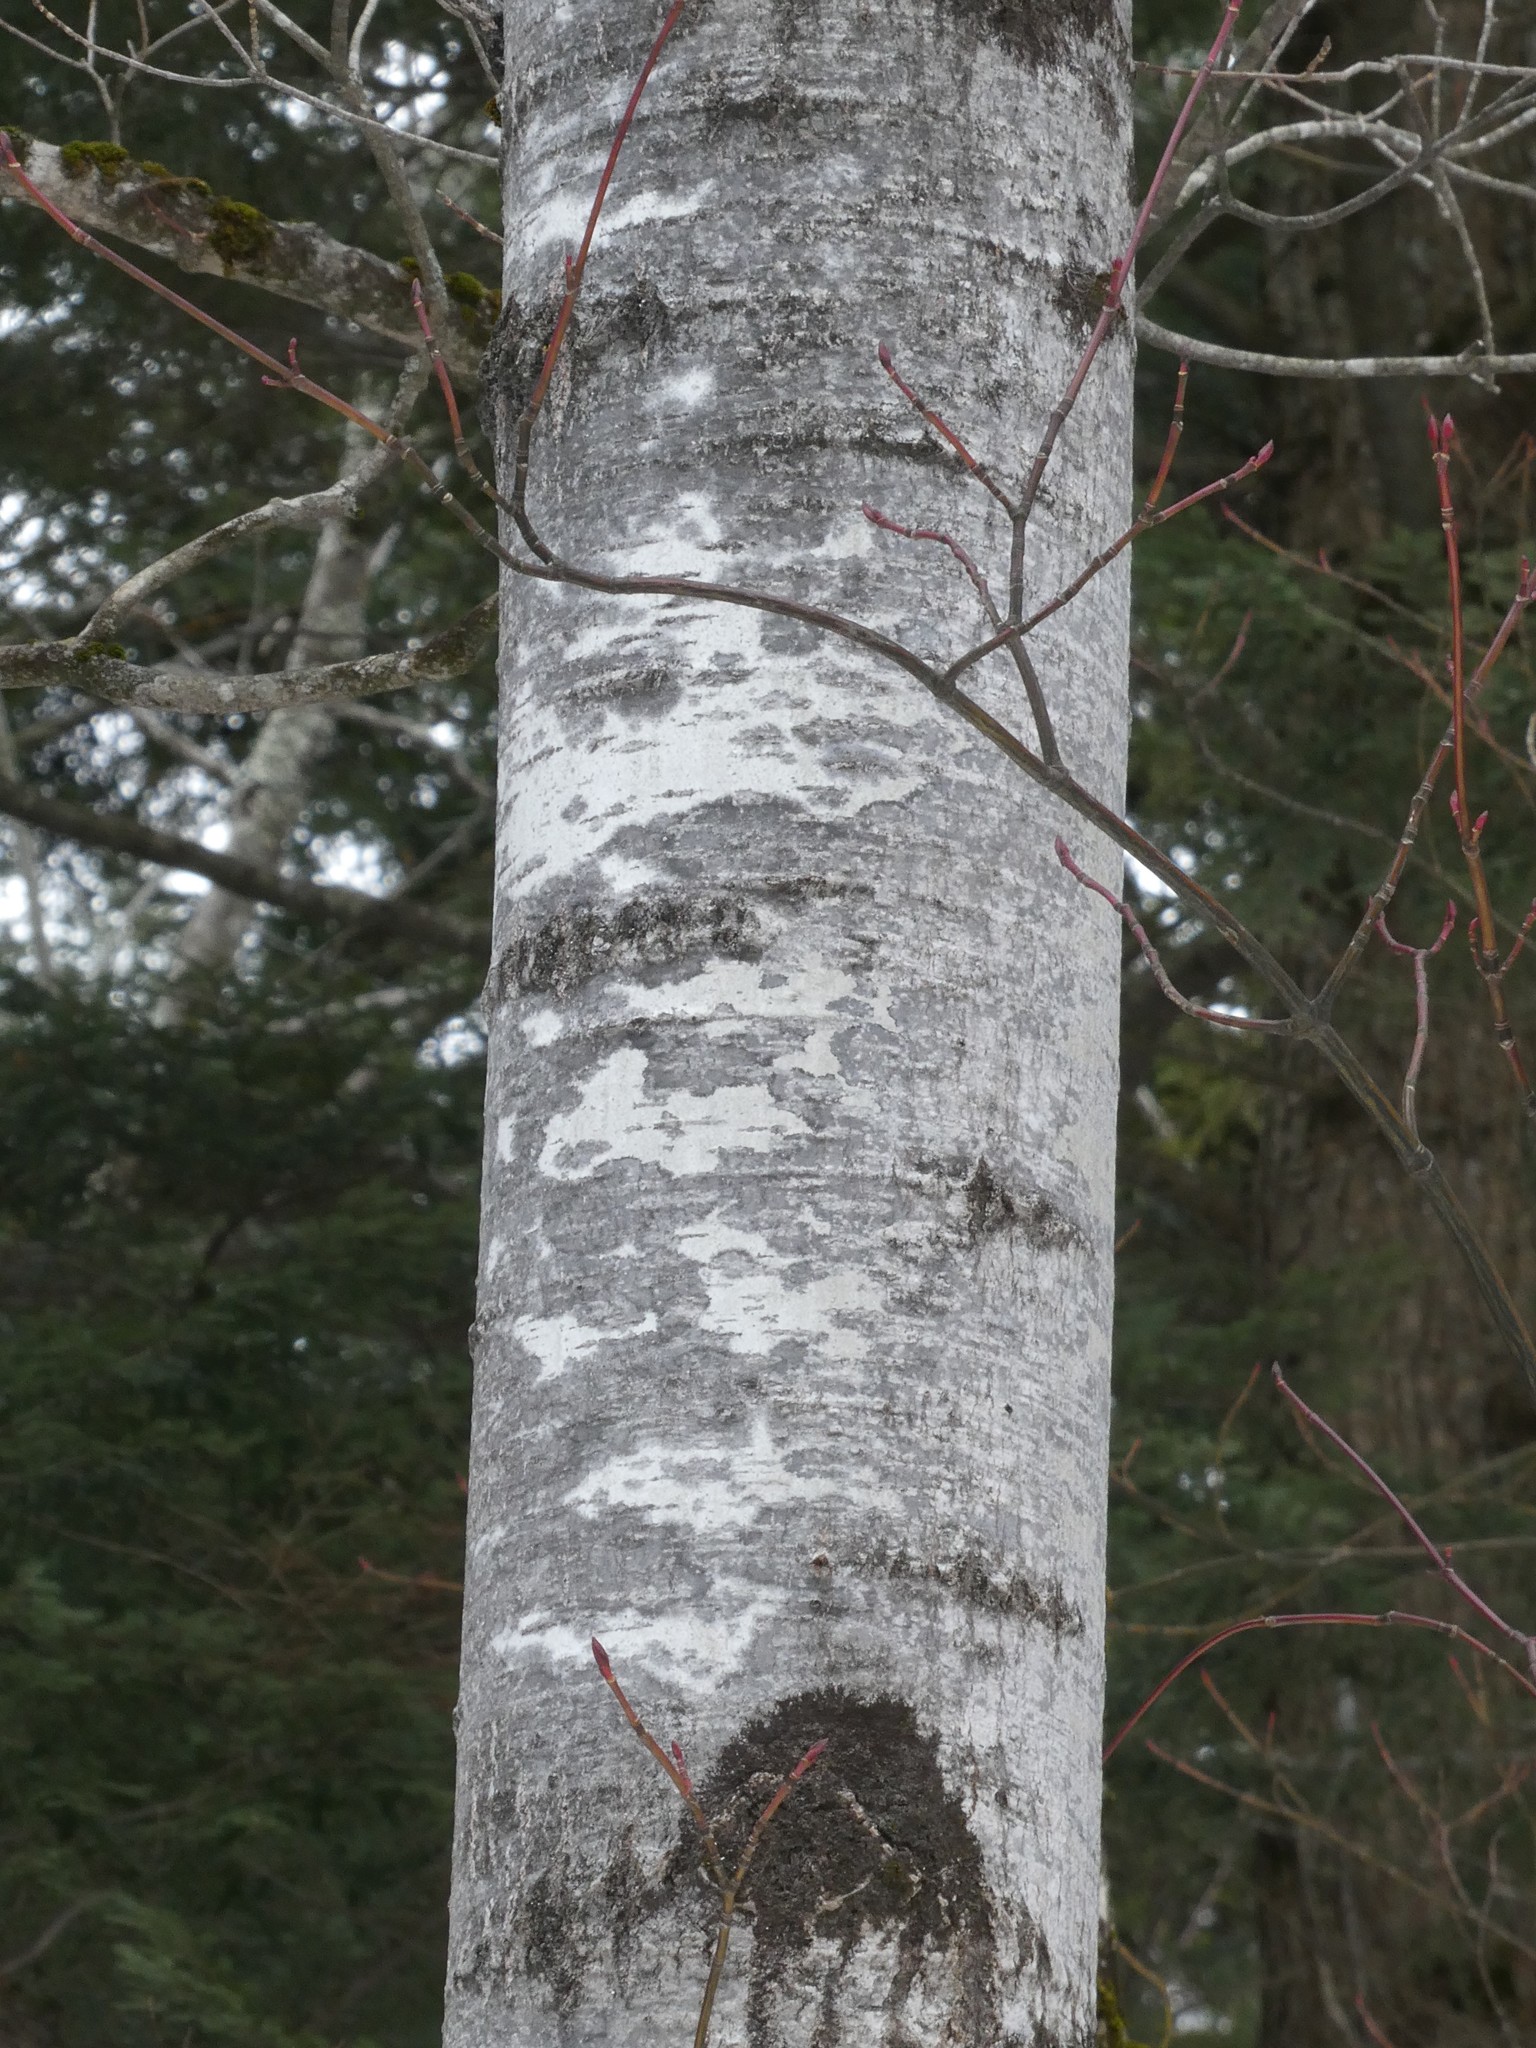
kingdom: Plantae
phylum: Tracheophyta
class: Magnoliopsida
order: Malpighiales
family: Salicaceae
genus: Populus
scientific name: Populus tremuloides
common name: Quaking aspen
